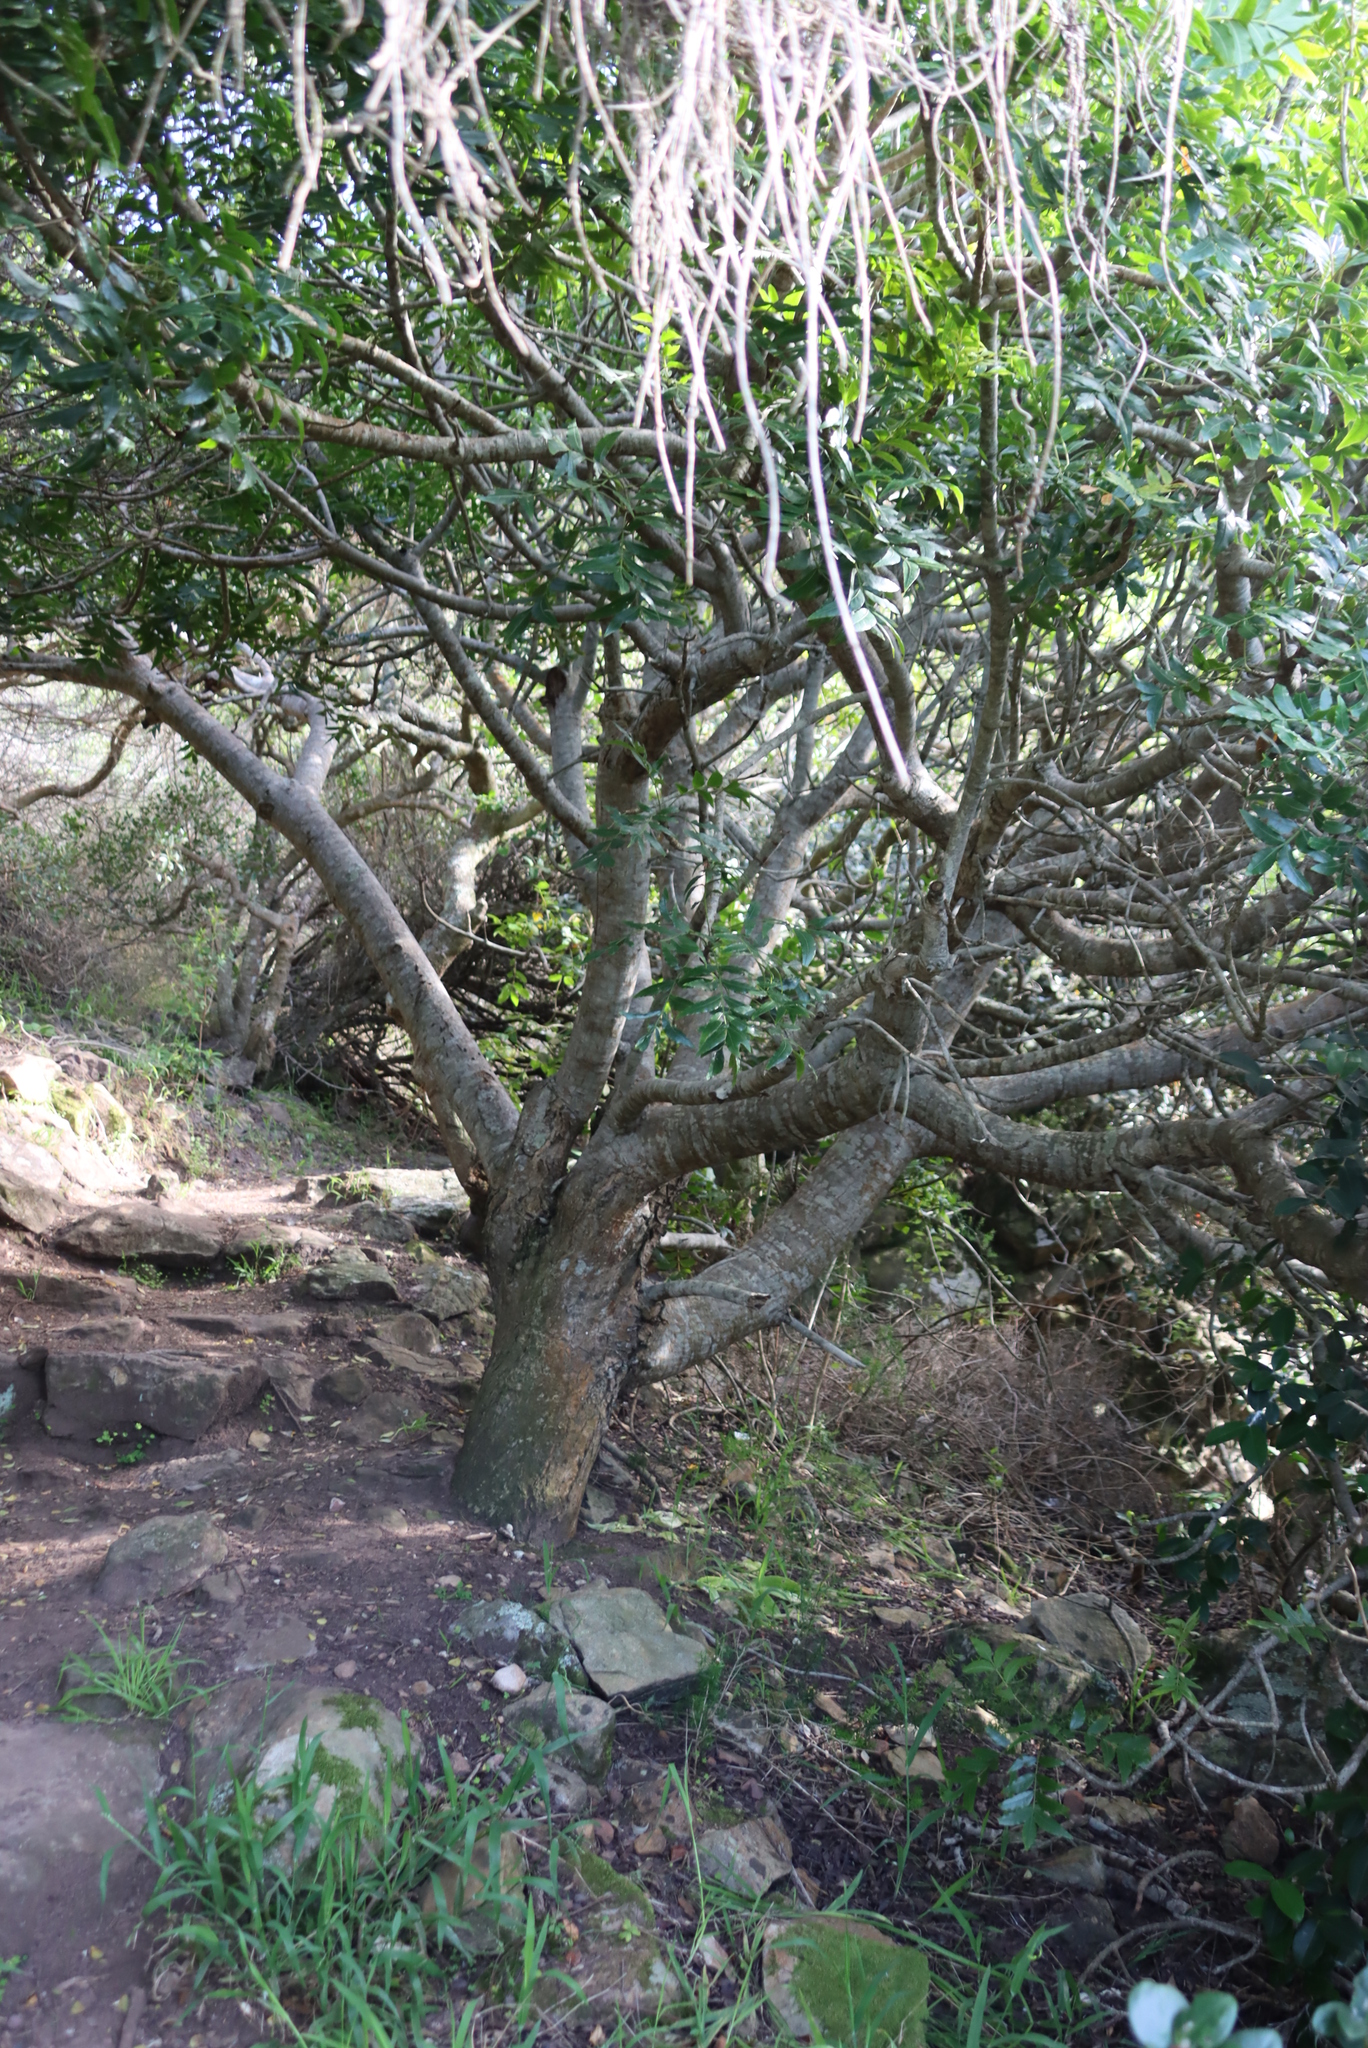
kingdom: Plantae
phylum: Tracheophyta
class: Magnoliopsida
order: Sapindales
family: Anacardiaceae
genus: Harpephyllum
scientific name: Harpephyllum caffrum
